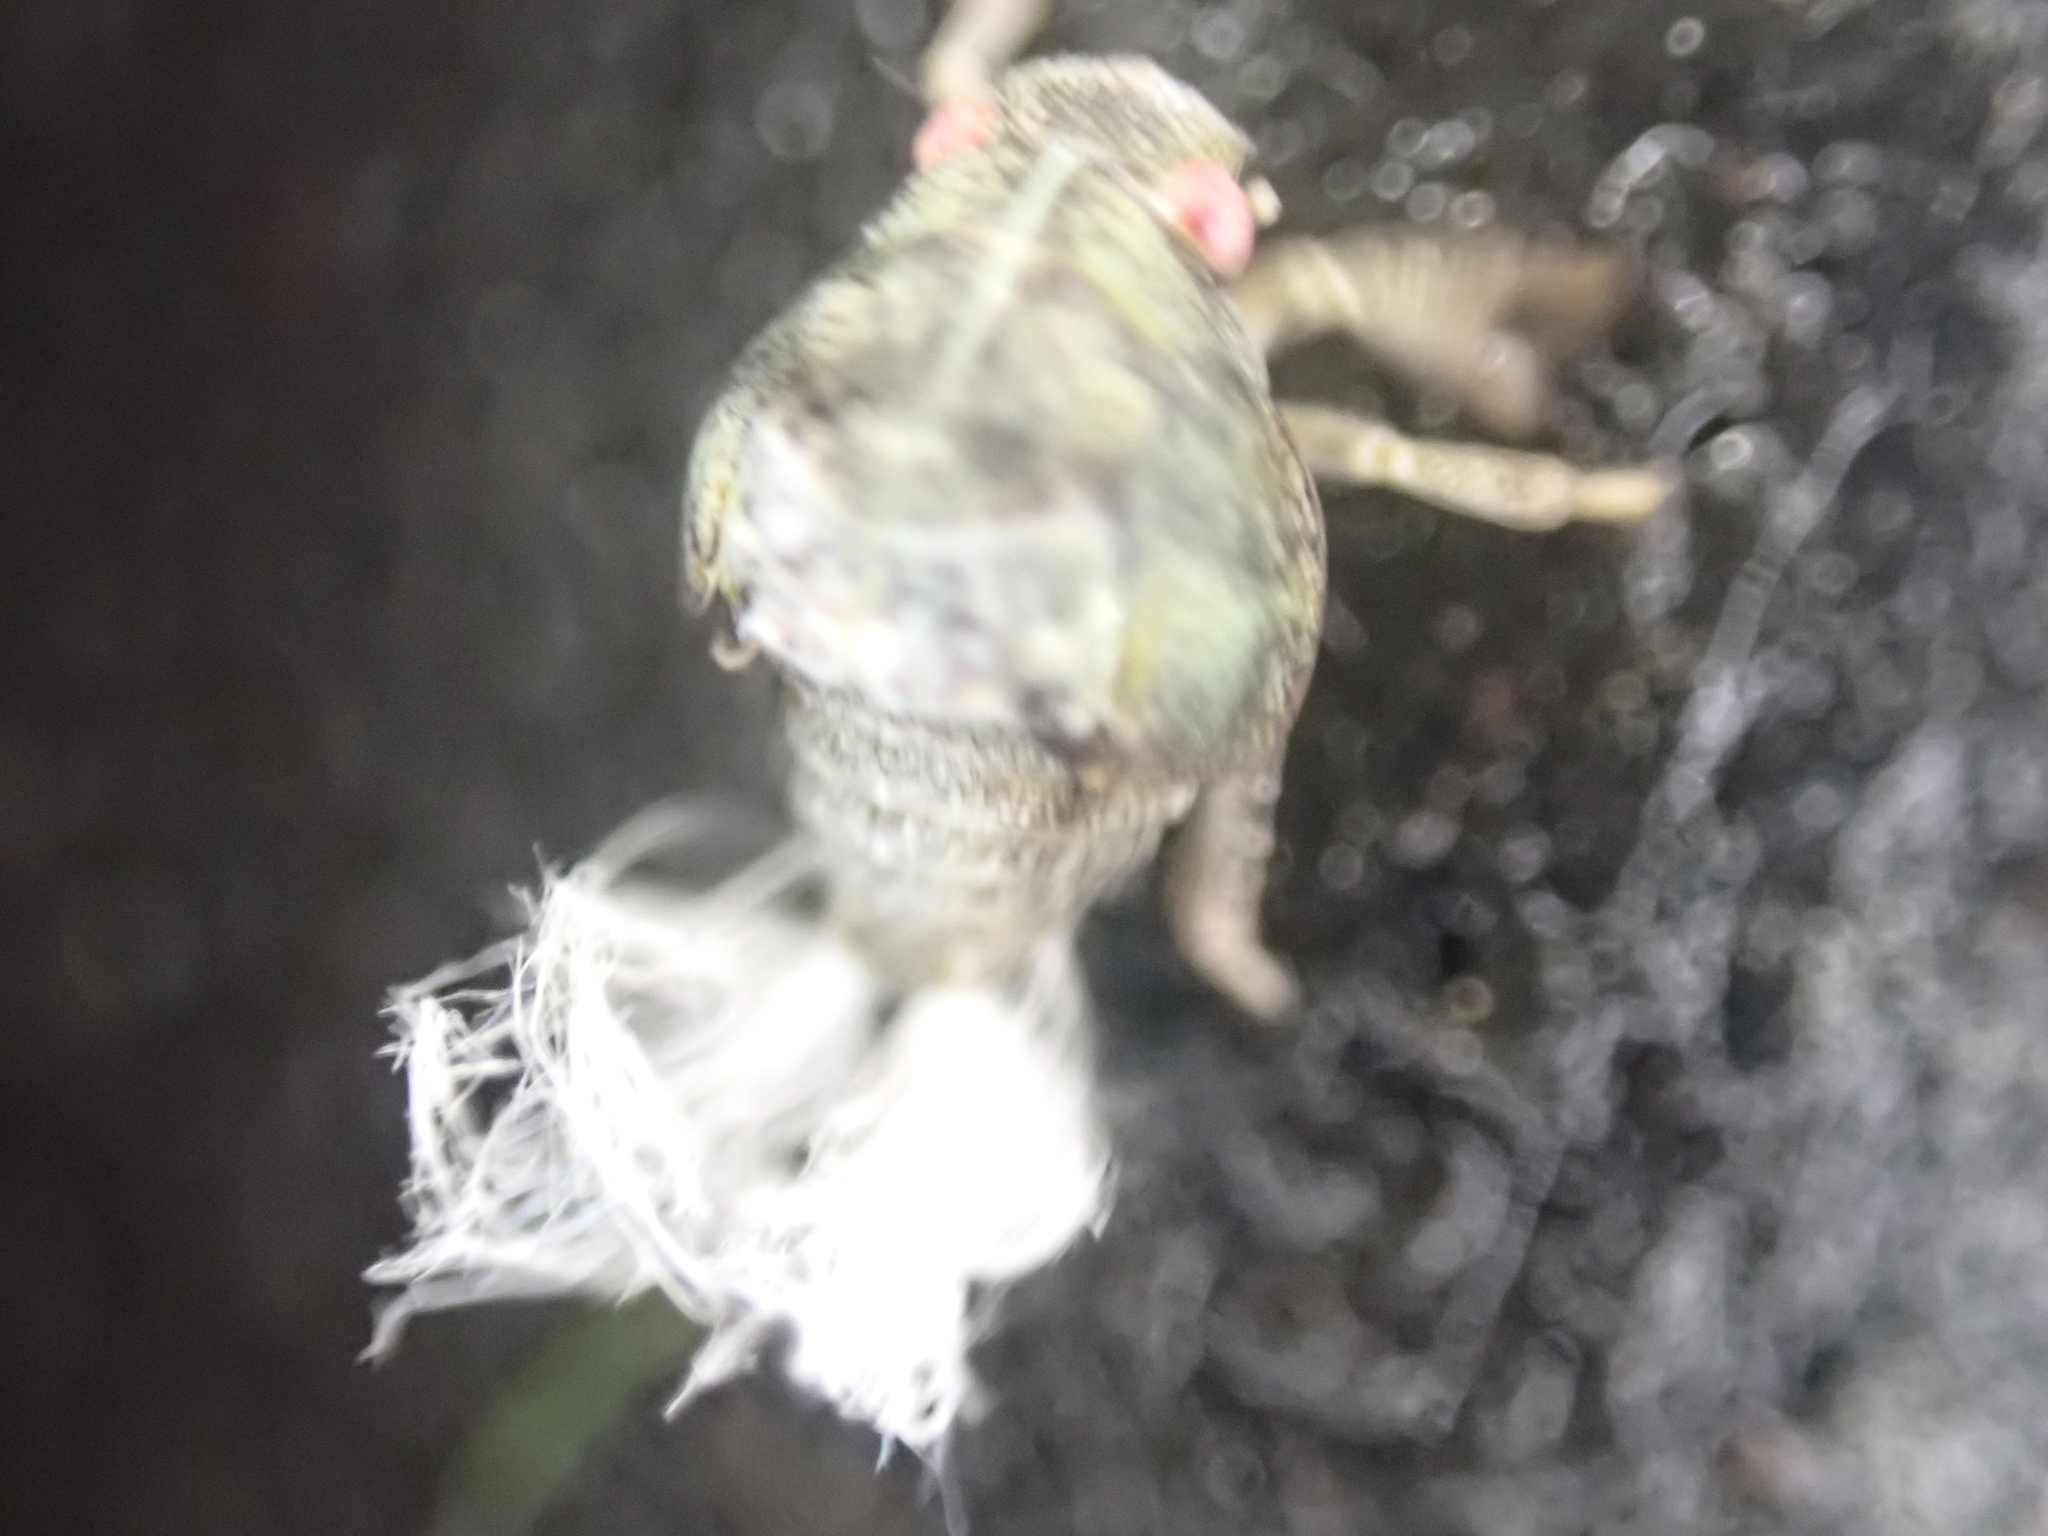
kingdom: Animalia
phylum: Arthropoda
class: Insecta
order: Hemiptera
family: Acanaloniidae
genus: Acanalonia
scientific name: Acanalonia conica
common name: Green cone-headed planthopper
